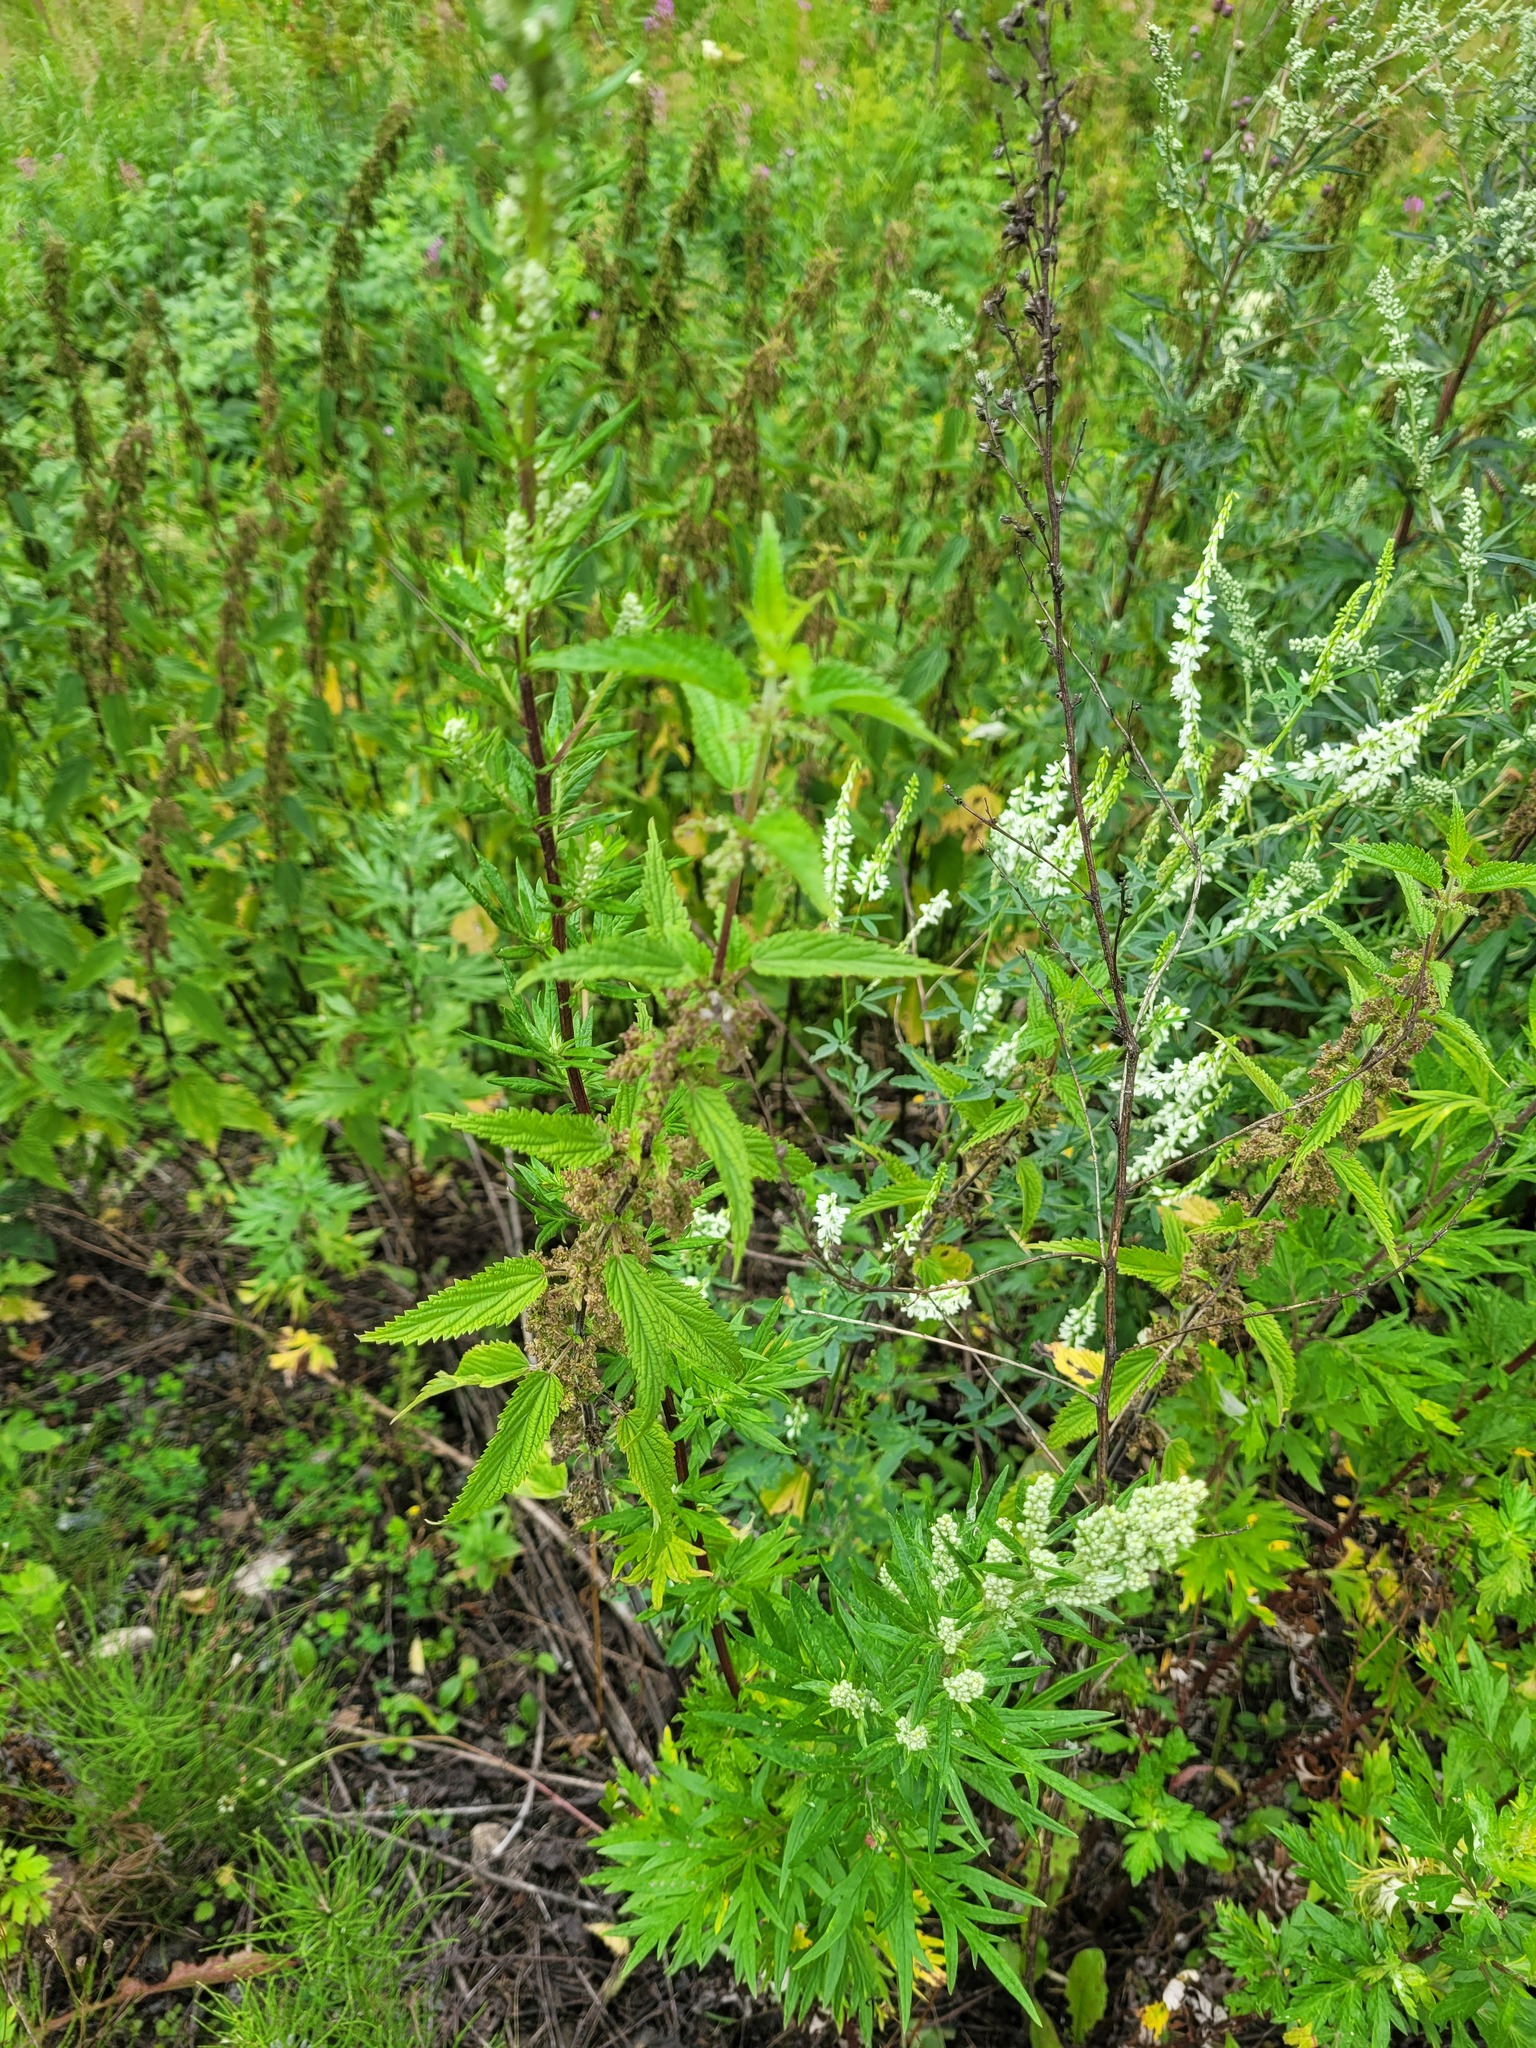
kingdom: Plantae
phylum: Tracheophyta
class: Magnoliopsida
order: Rosales
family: Urticaceae
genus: Urtica
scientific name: Urtica dioica
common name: Common nettle
